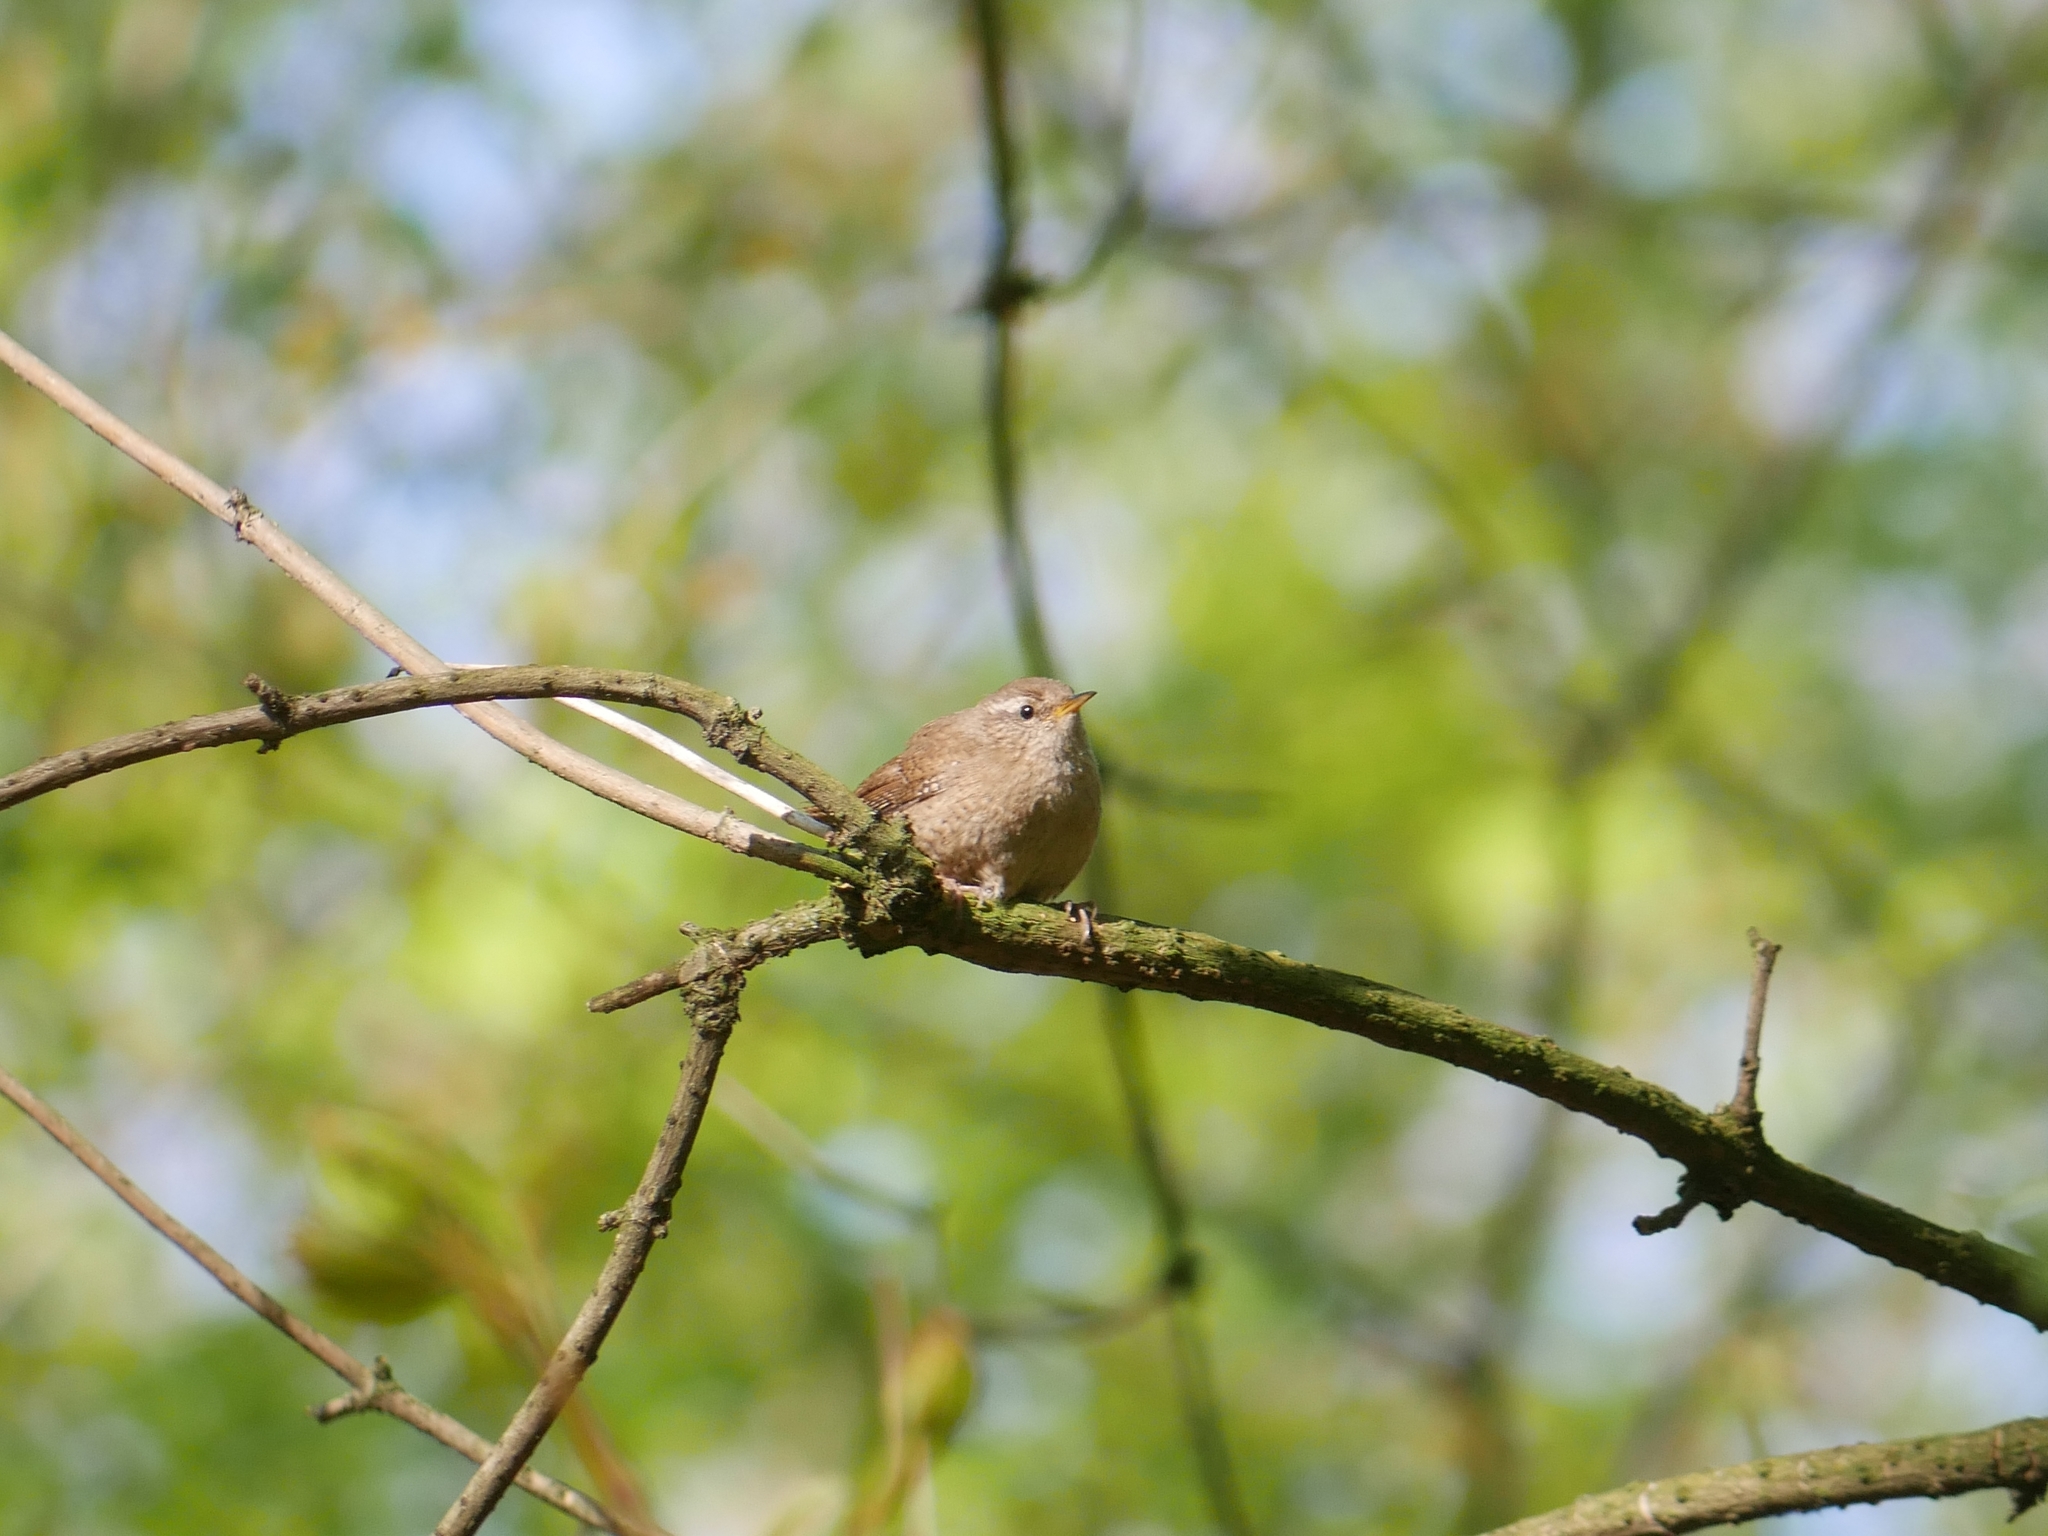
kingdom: Animalia
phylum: Chordata
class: Aves
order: Passeriformes
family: Troglodytidae
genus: Troglodytes
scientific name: Troglodytes troglodytes
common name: Eurasian wren
